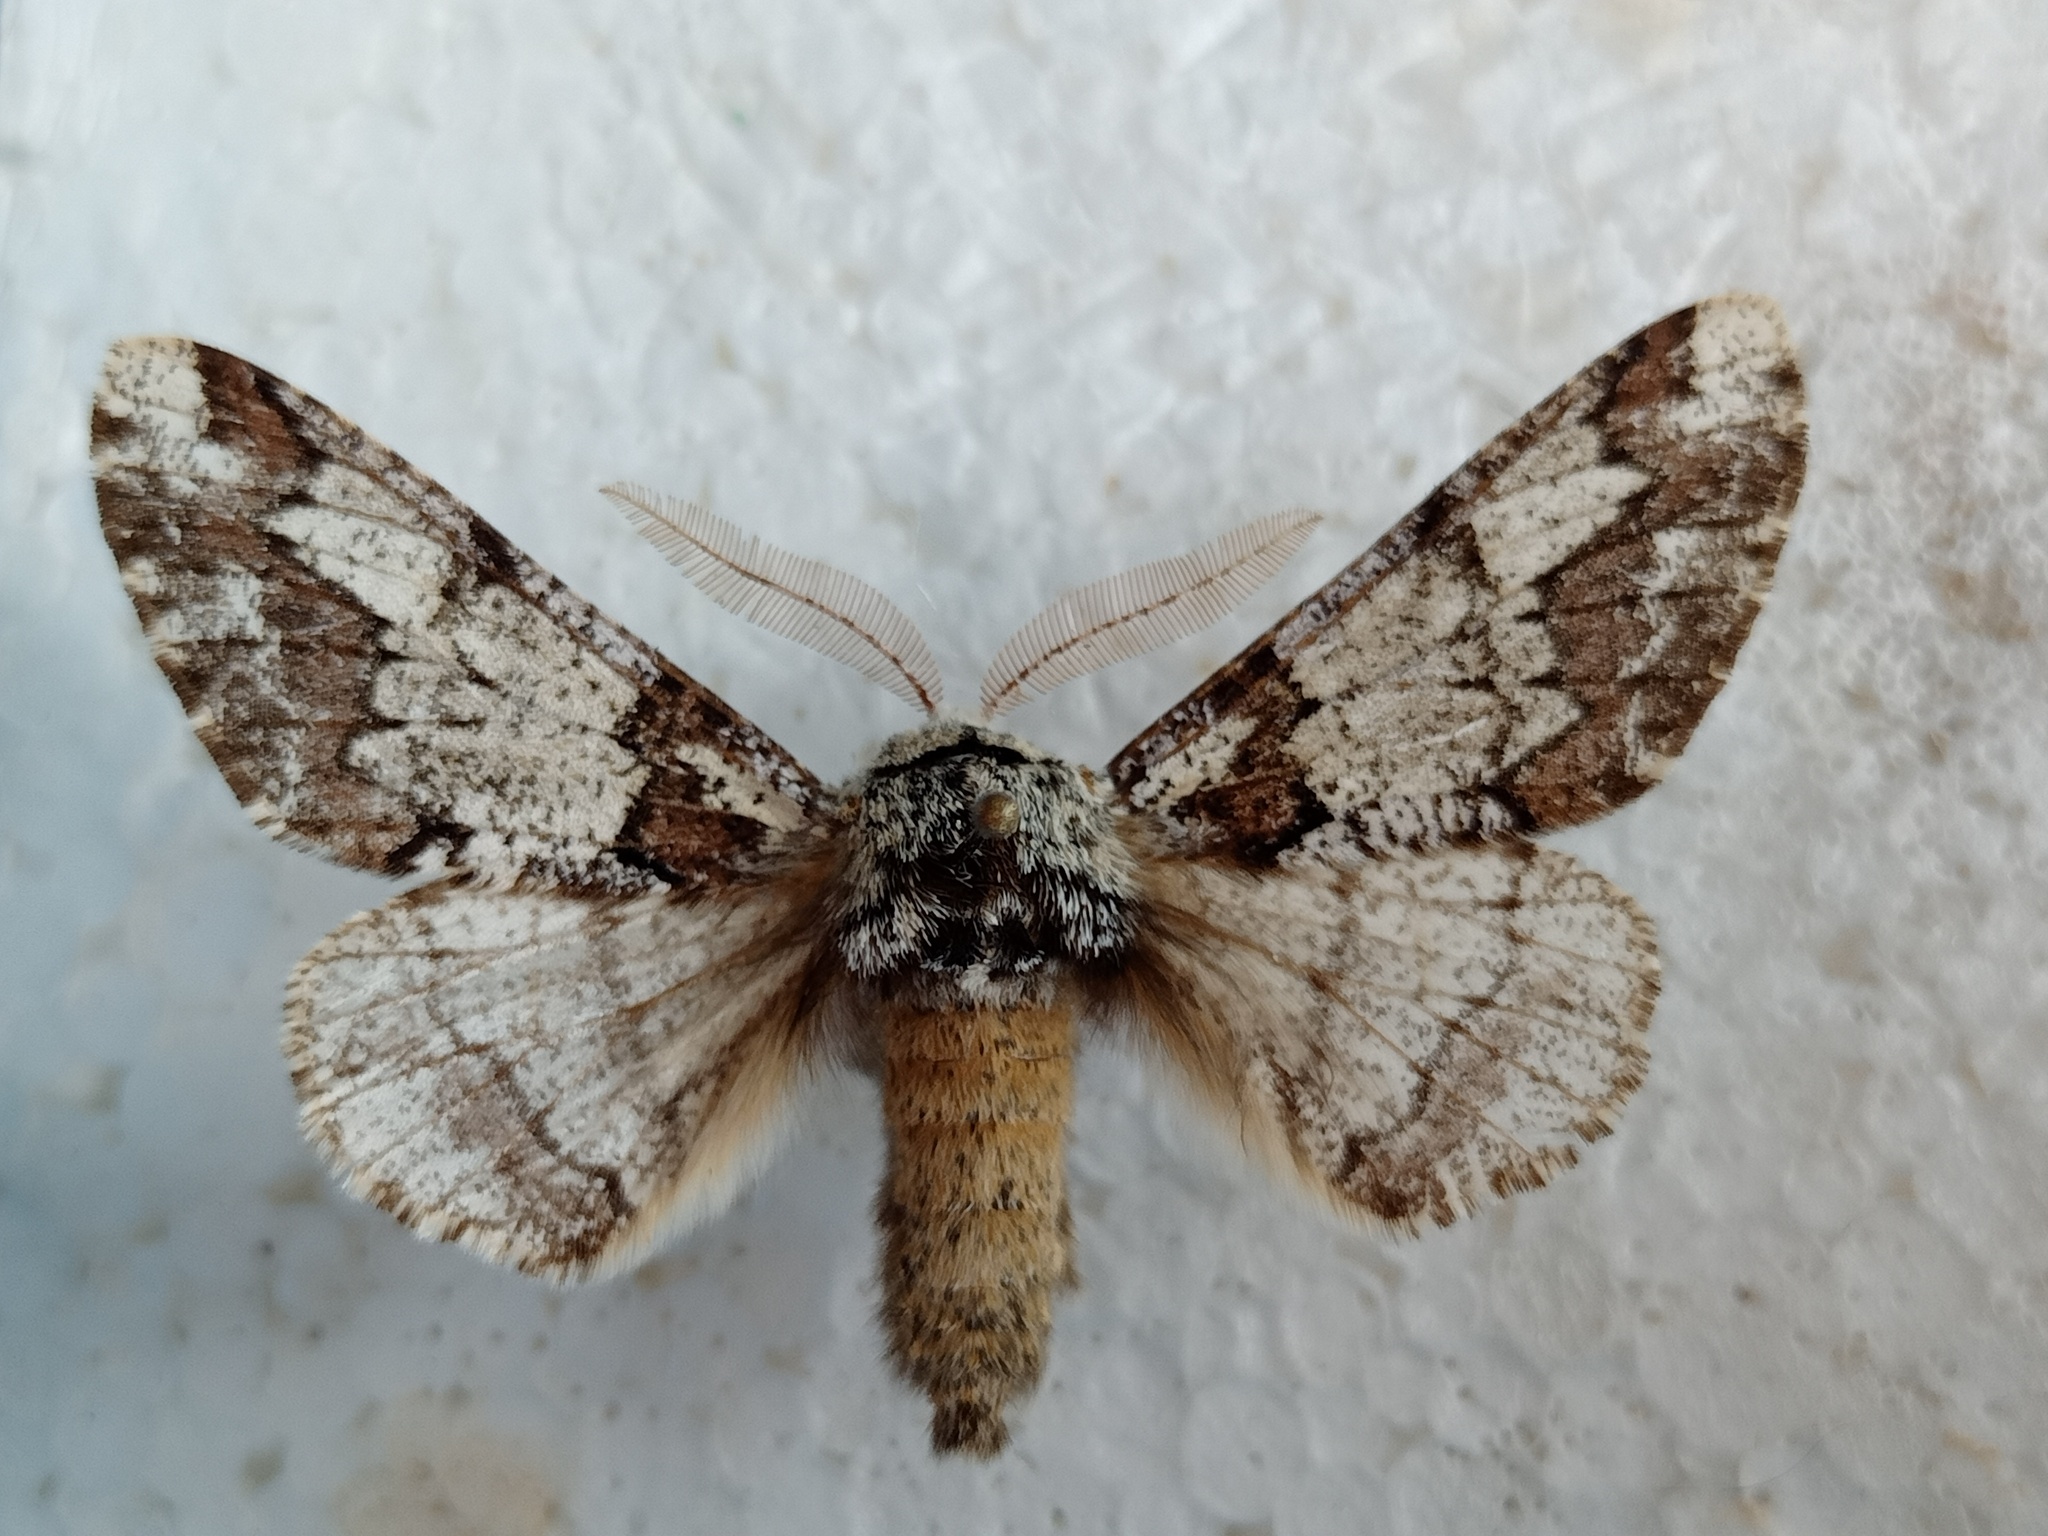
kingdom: Animalia
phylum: Arthropoda
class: Insecta
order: Lepidoptera
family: Geometridae
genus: Biston
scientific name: Biston strataria
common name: Oak beauty
